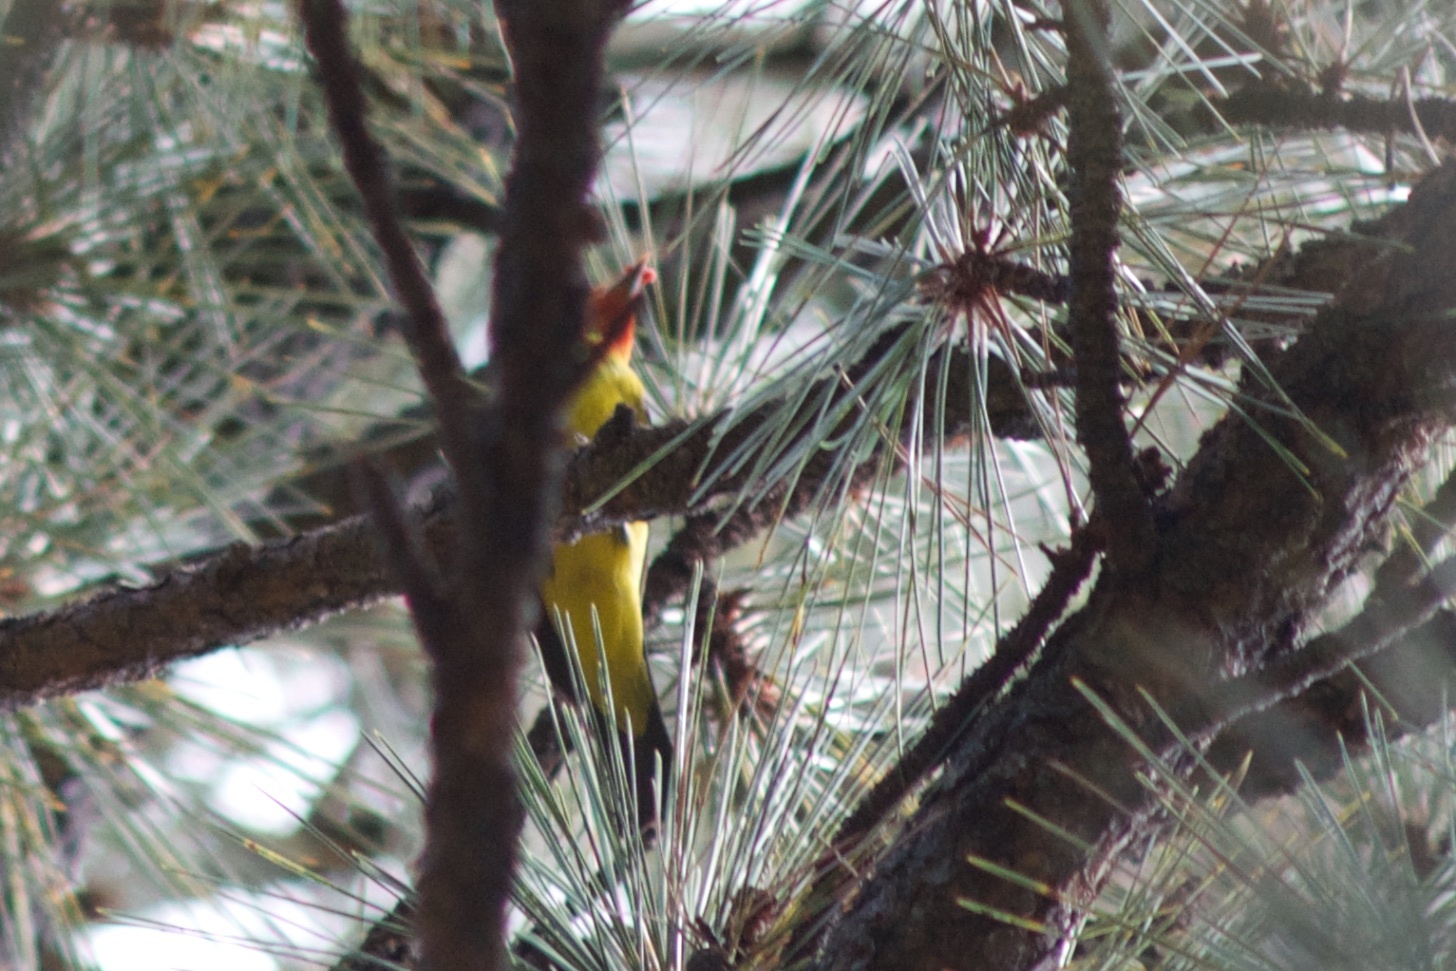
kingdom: Animalia
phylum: Chordata
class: Aves
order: Passeriformes
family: Cardinalidae
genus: Piranga
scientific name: Piranga ludoviciana
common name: Western tanager
